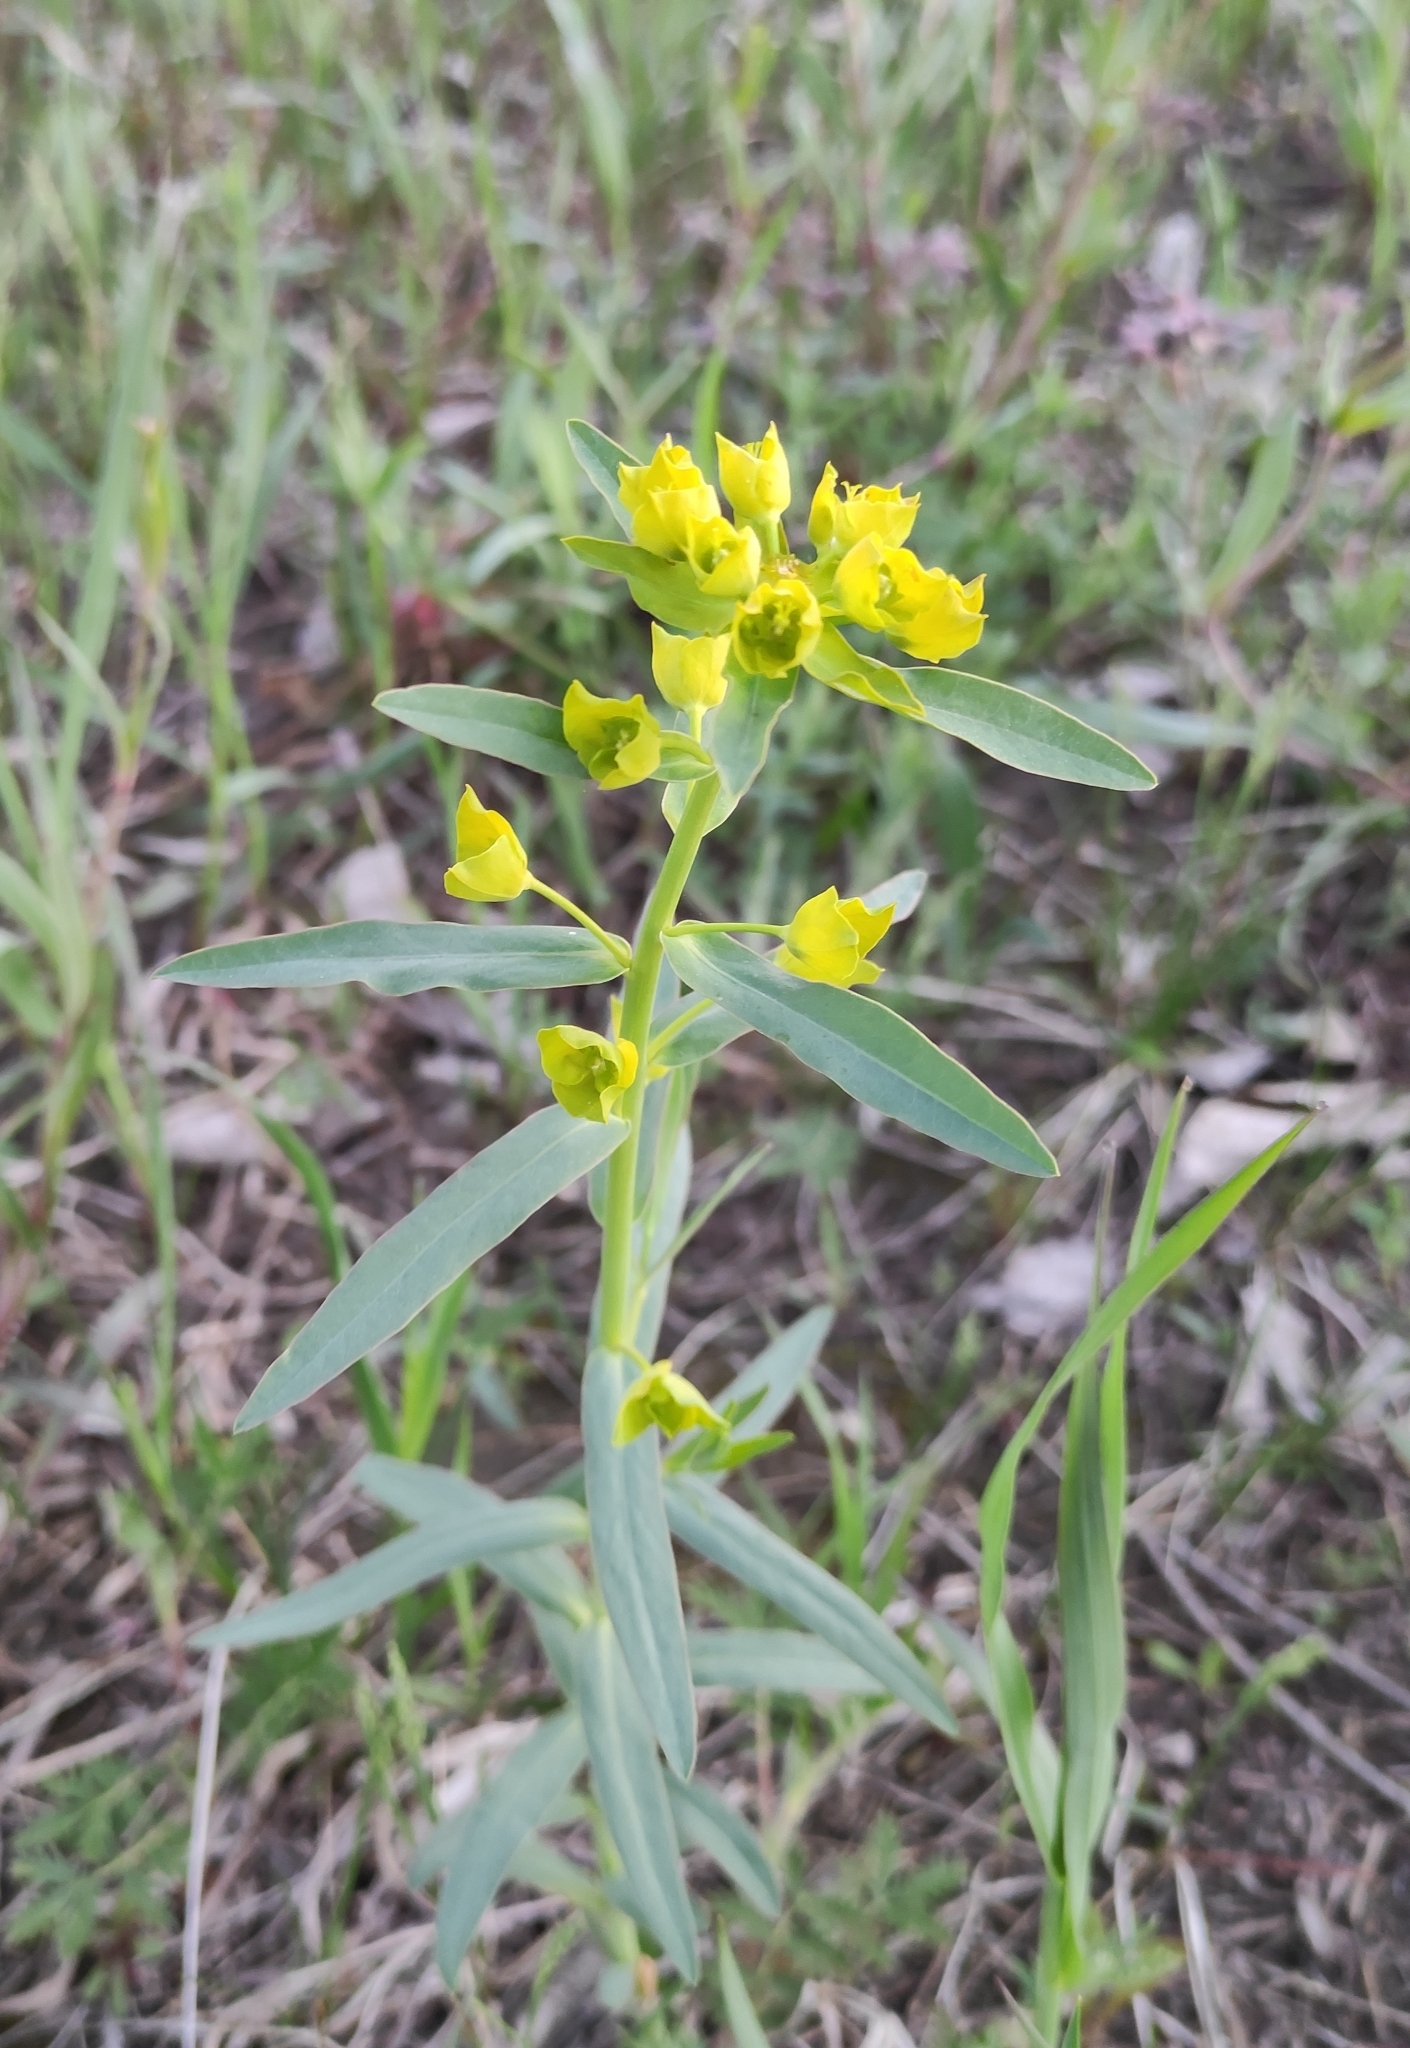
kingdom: Plantae
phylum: Tracheophyta
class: Magnoliopsida
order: Malpighiales
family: Euphorbiaceae
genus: Euphorbia
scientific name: Euphorbia virgata
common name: Leafy spurge
